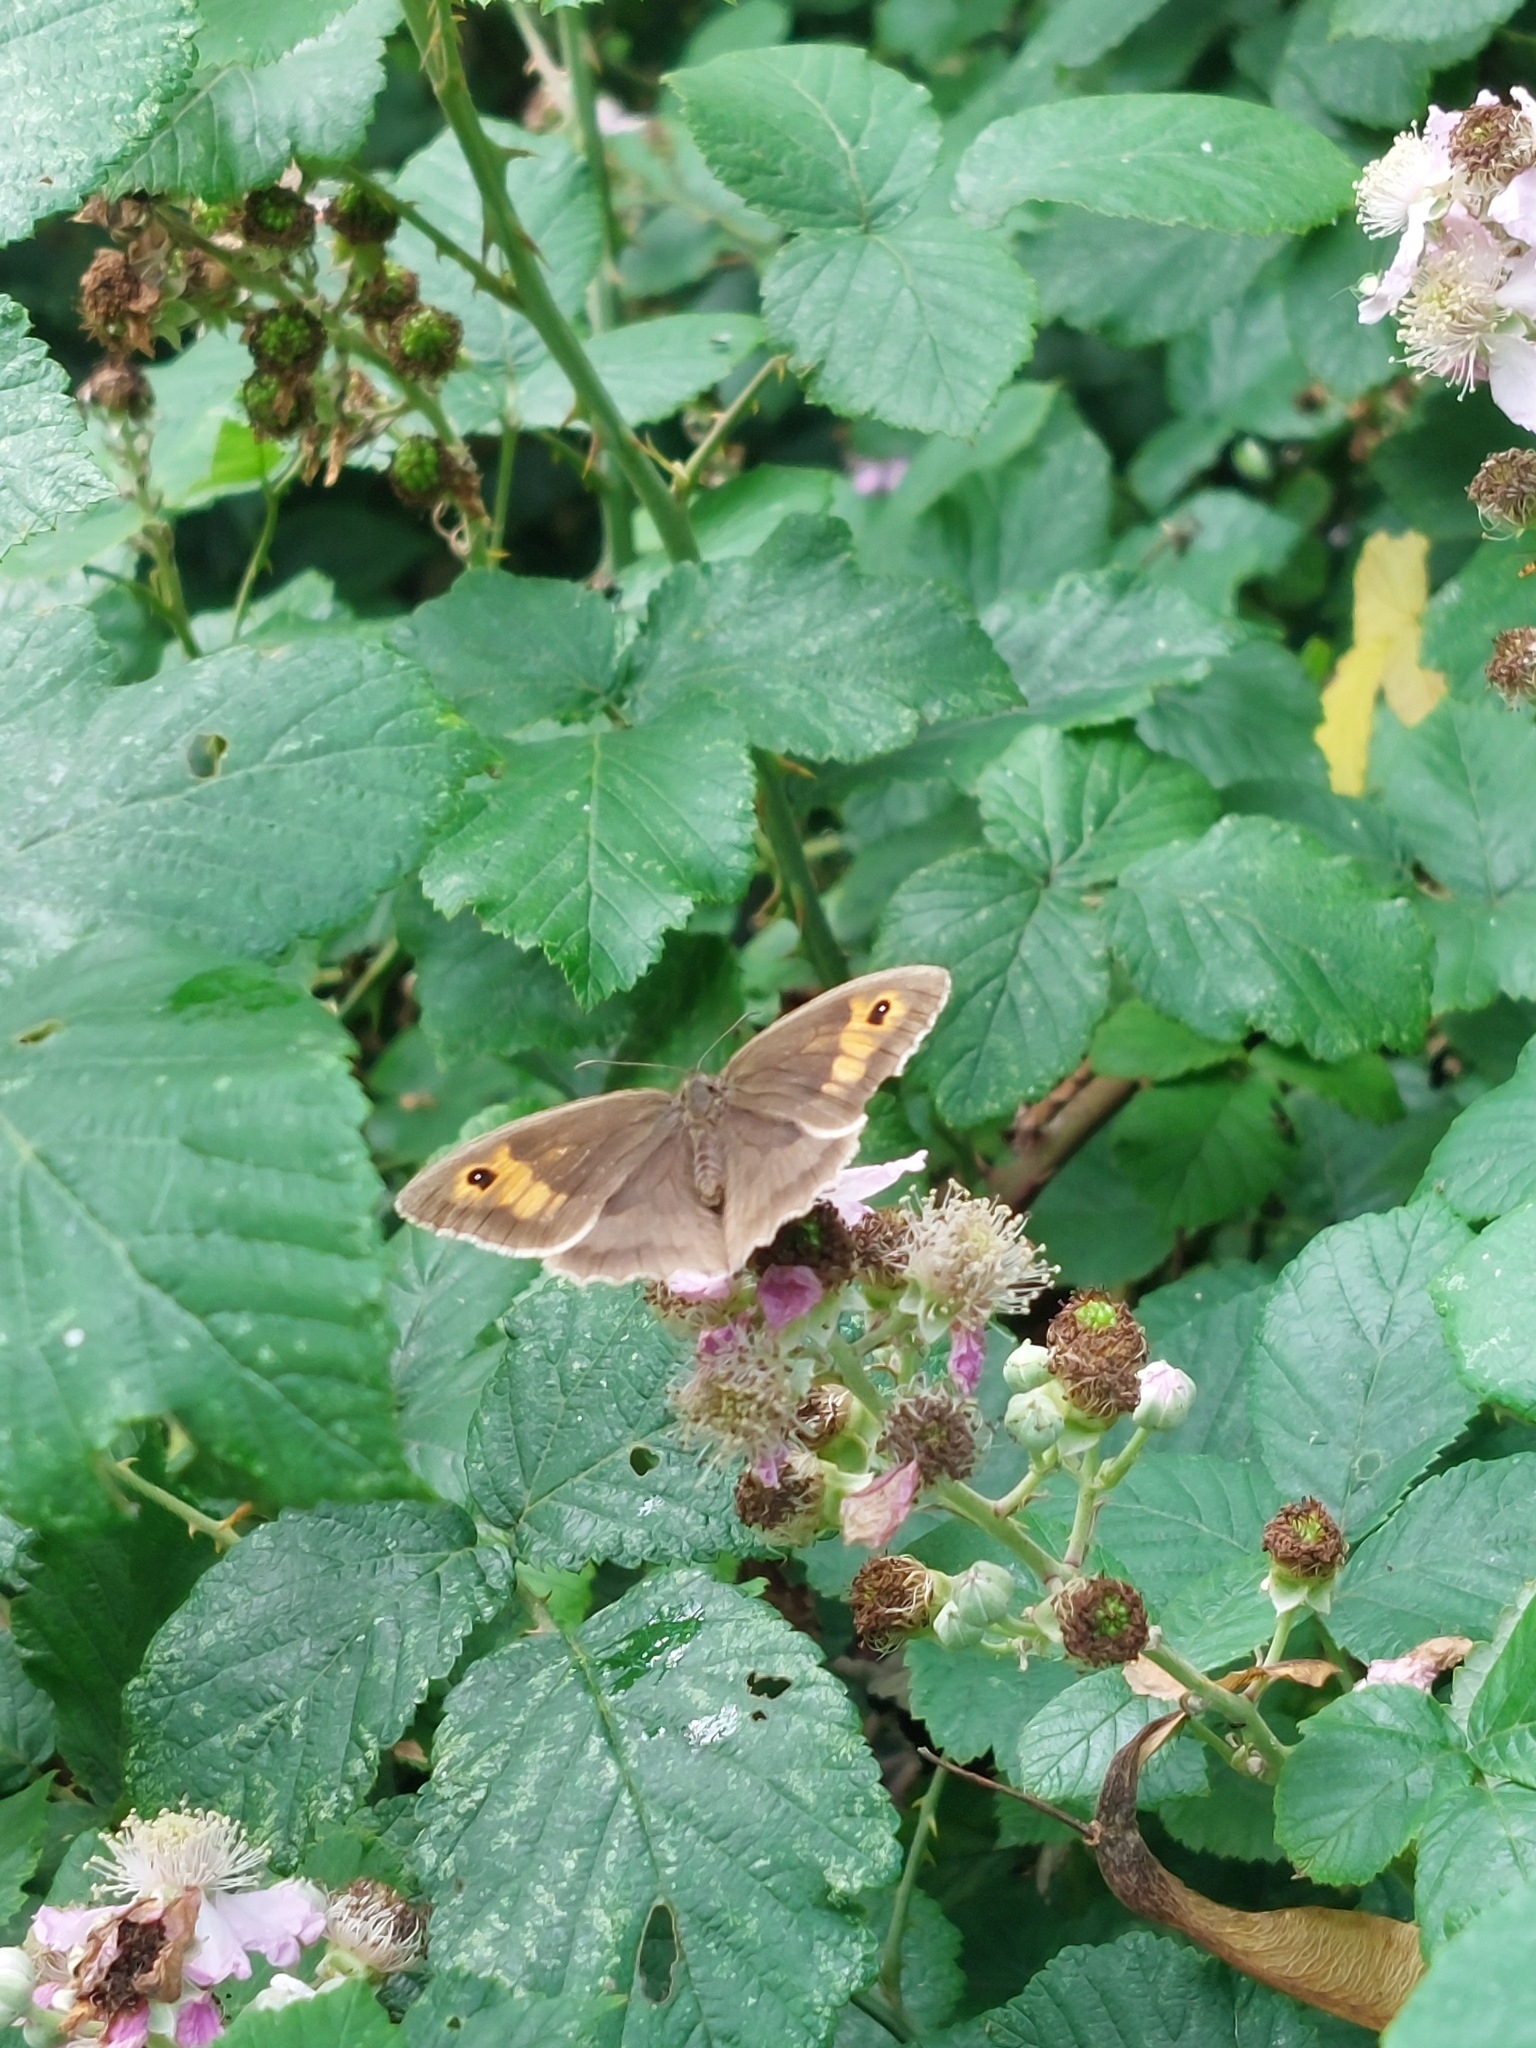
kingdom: Animalia
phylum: Arthropoda
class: Insecta
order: Lepidoptera
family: Nymphalidae
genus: Maniola
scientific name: Maniola jurtina
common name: Meadow brown
